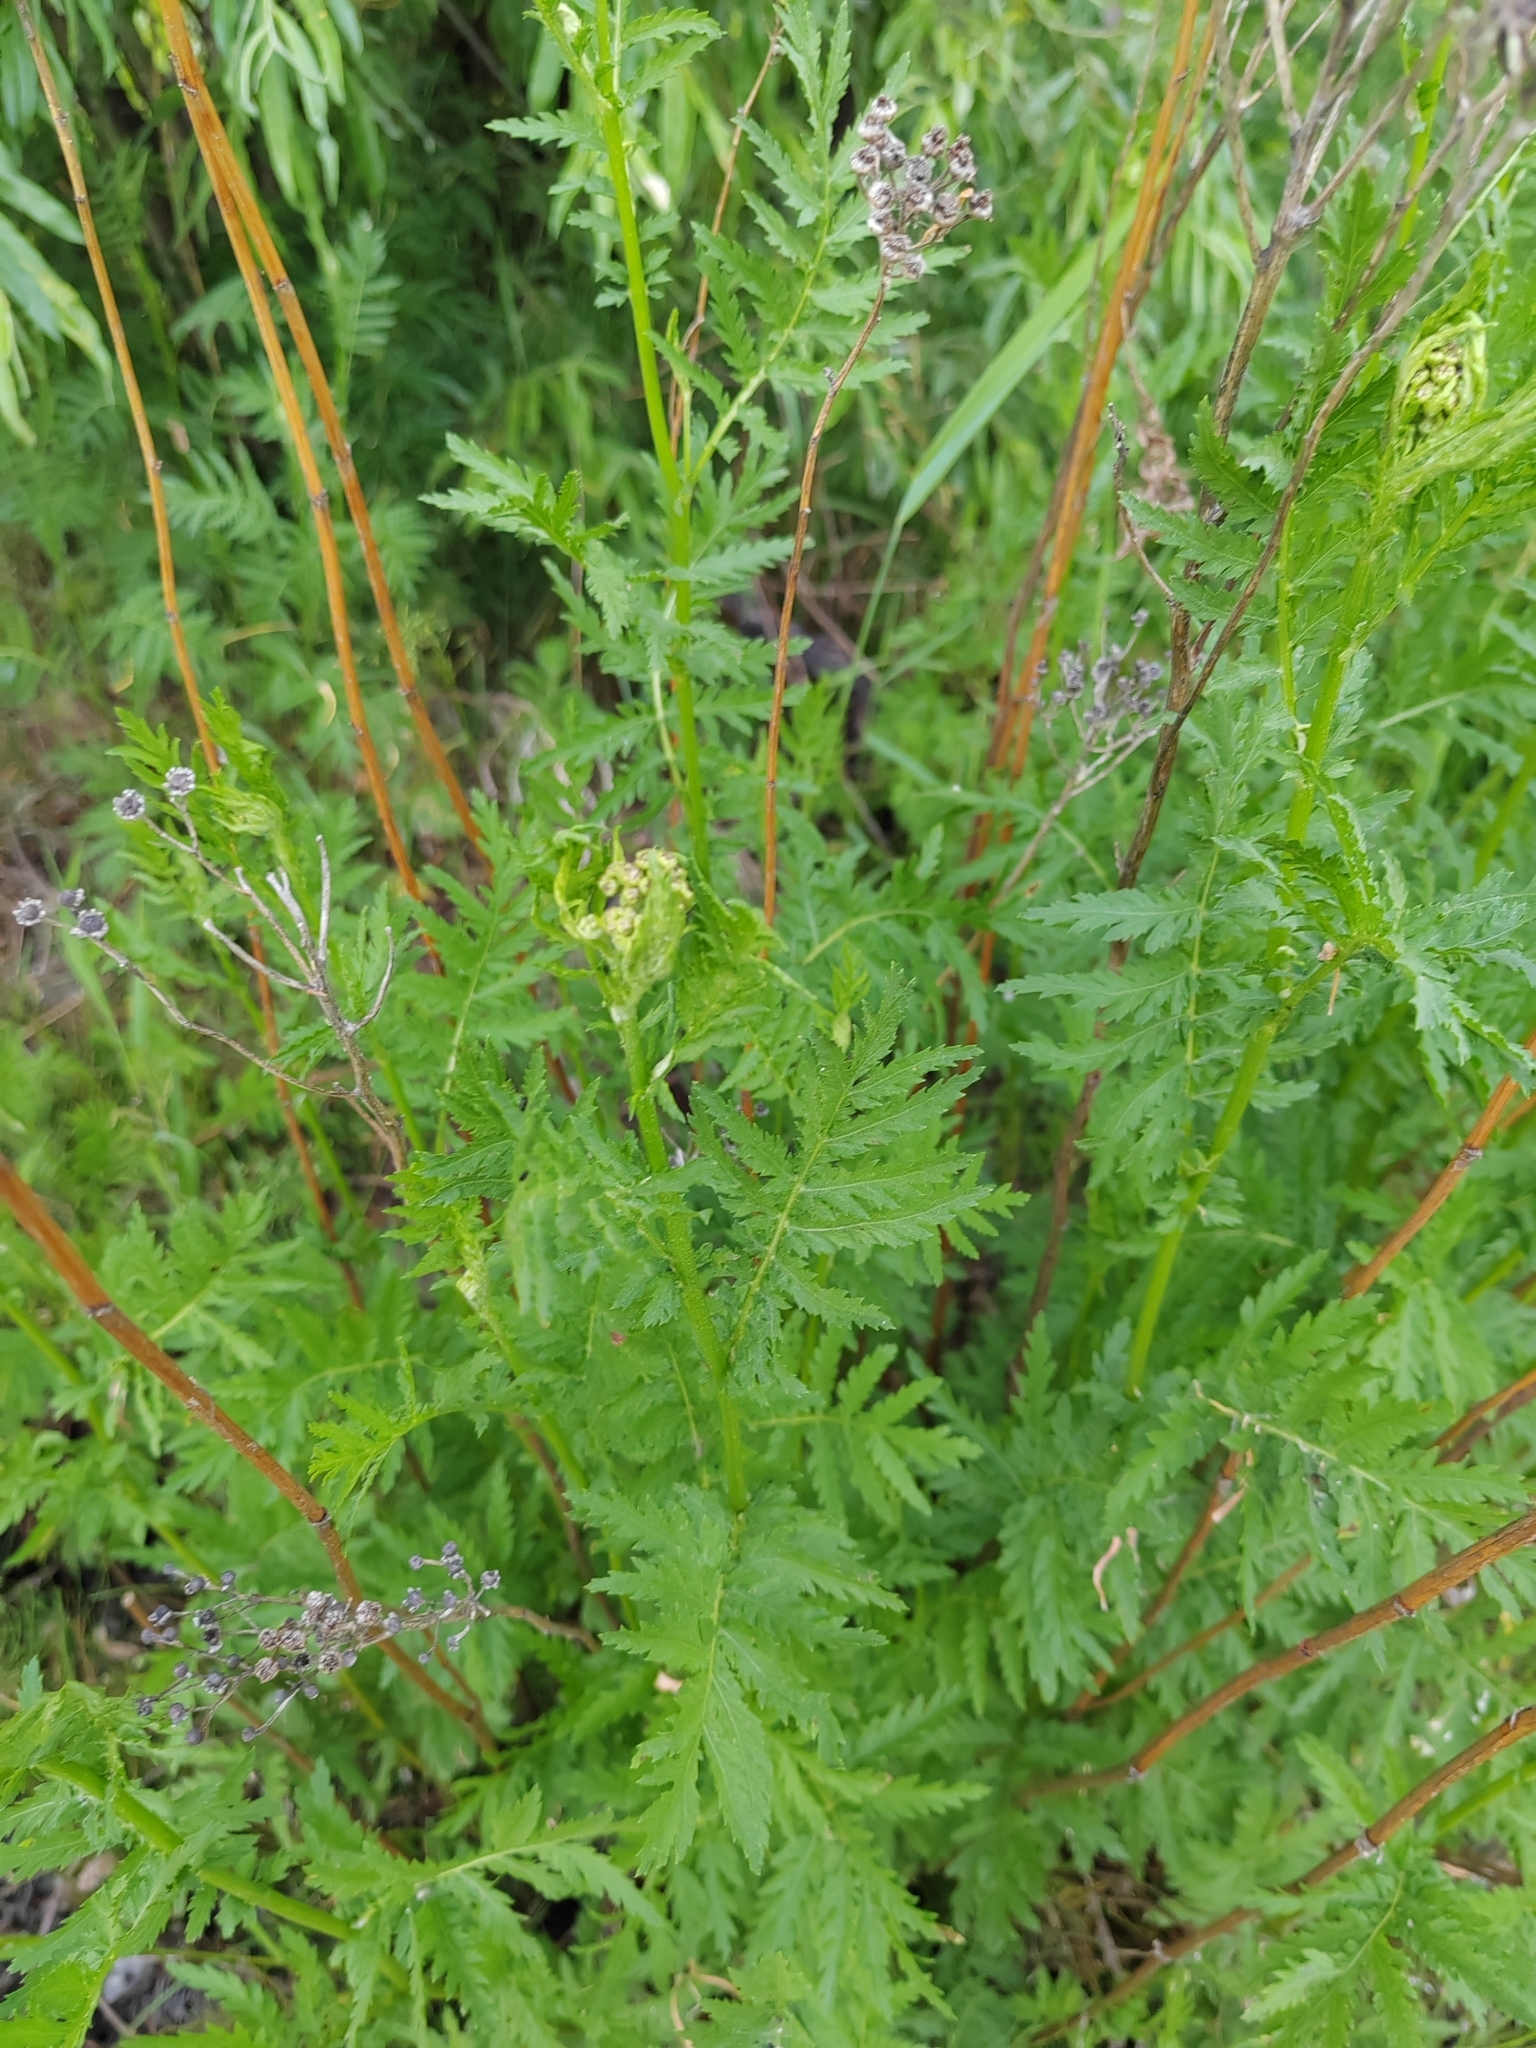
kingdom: Plantae
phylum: Tracheophyta
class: Magnoliopsida
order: Asterales
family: Asteraceae
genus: Tanacetum
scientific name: Tanacetum vulgare
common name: Common tansy
